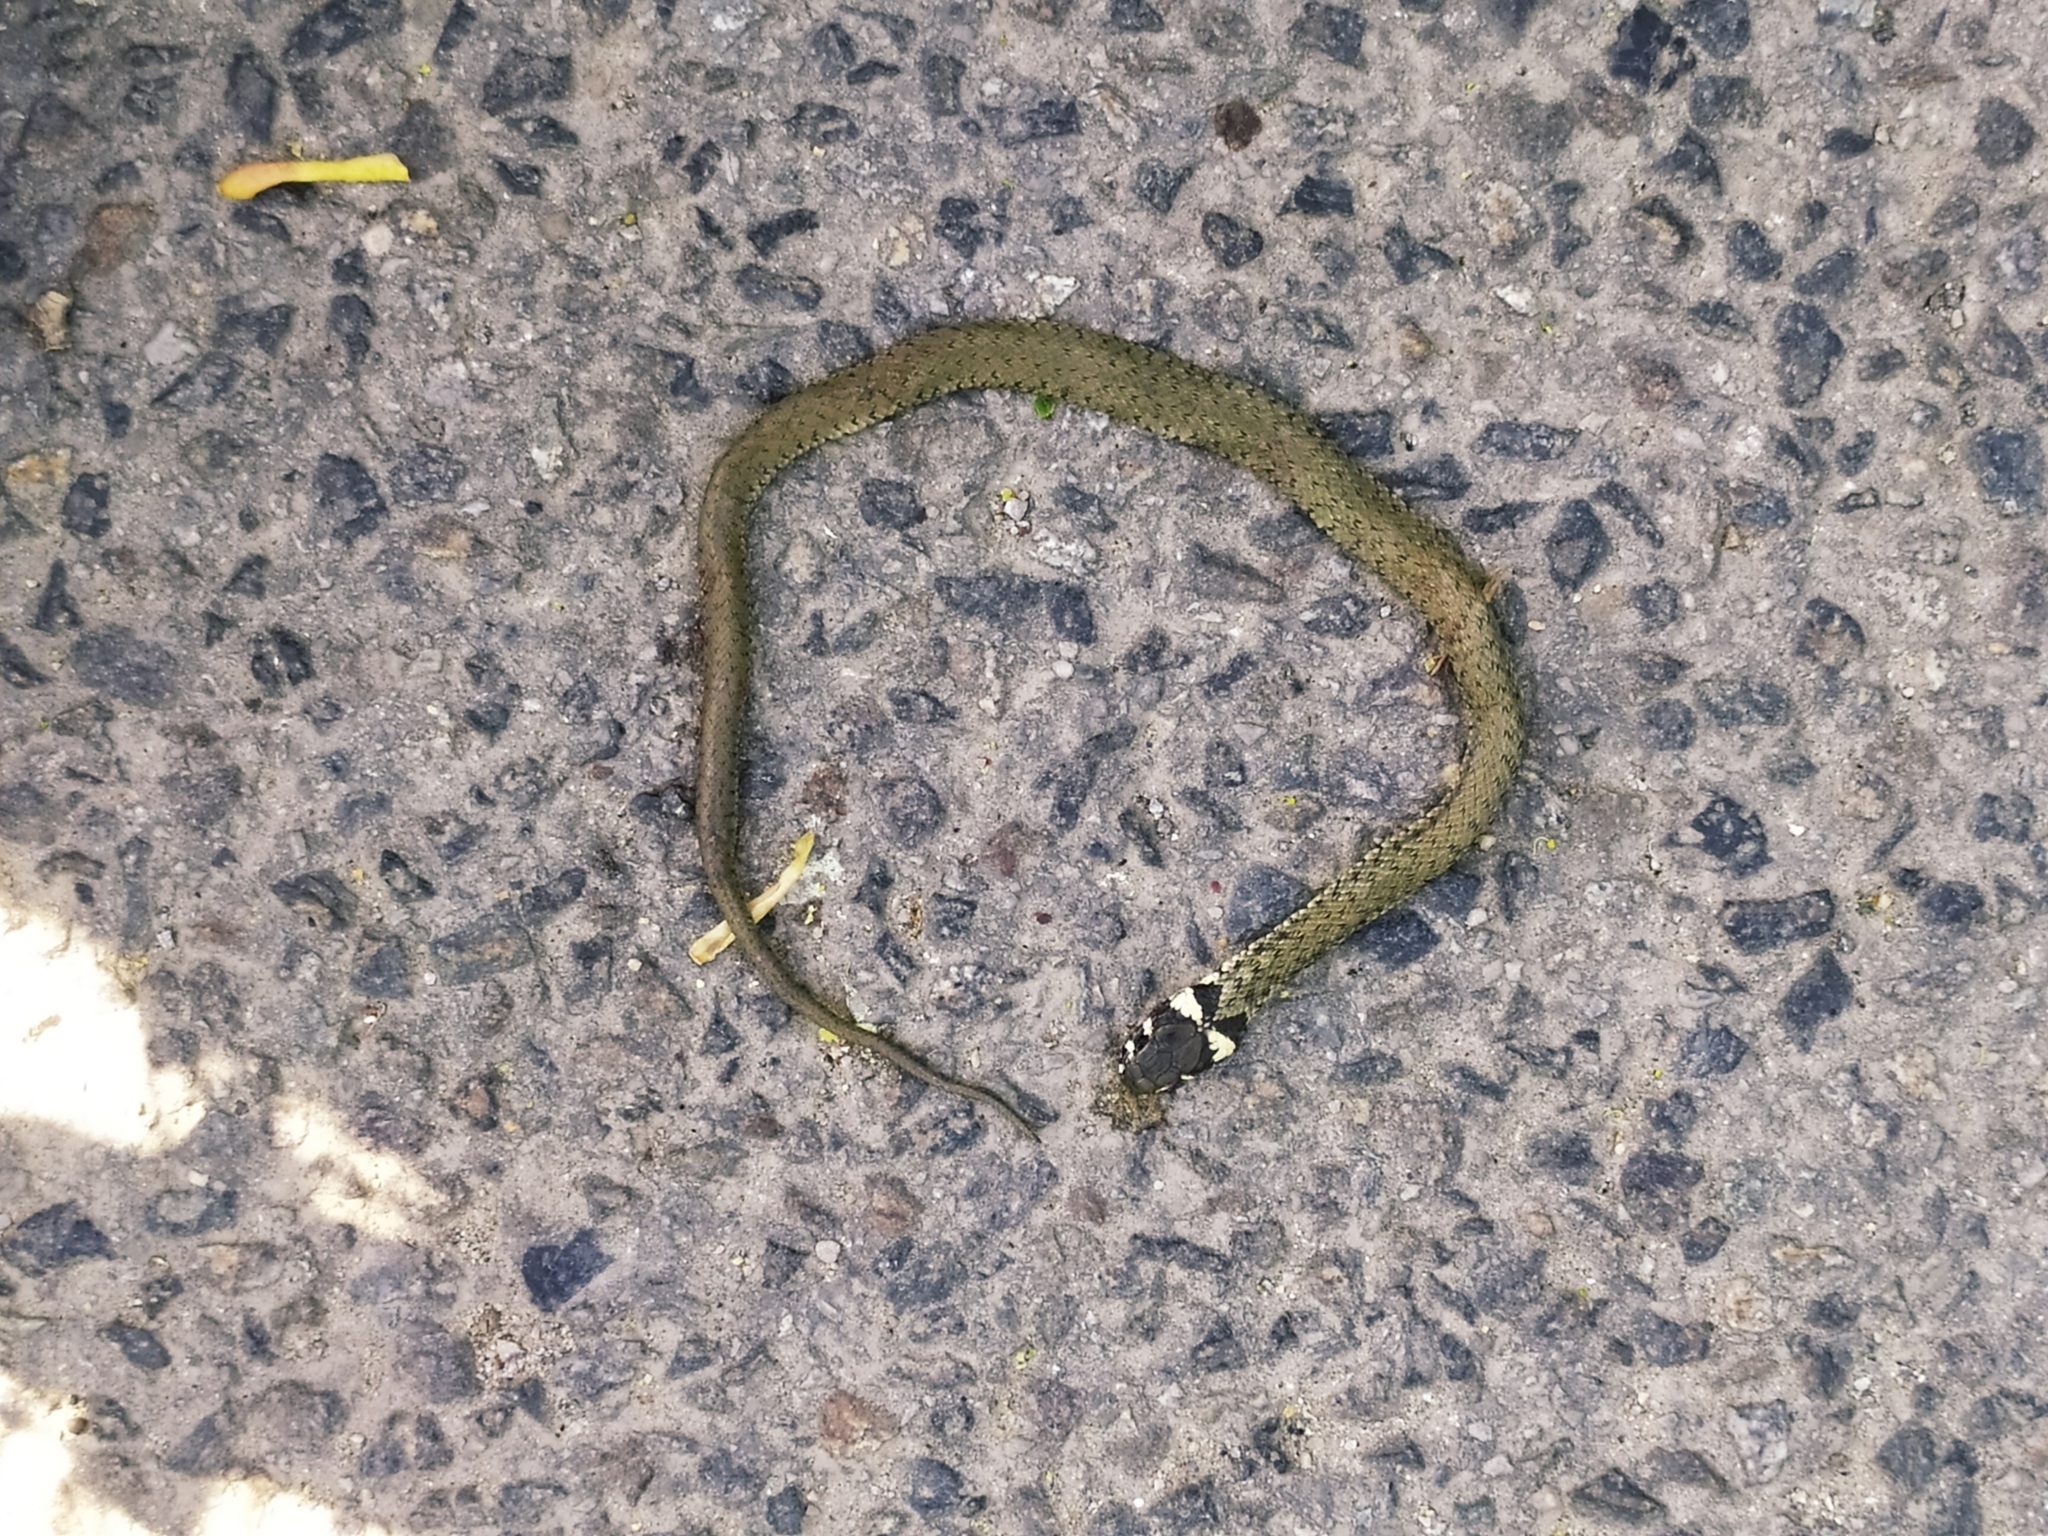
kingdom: Animalia
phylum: Chordata
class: Squamata
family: Colubridae
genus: Natrix
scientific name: Natrix natrix
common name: Grass snake
